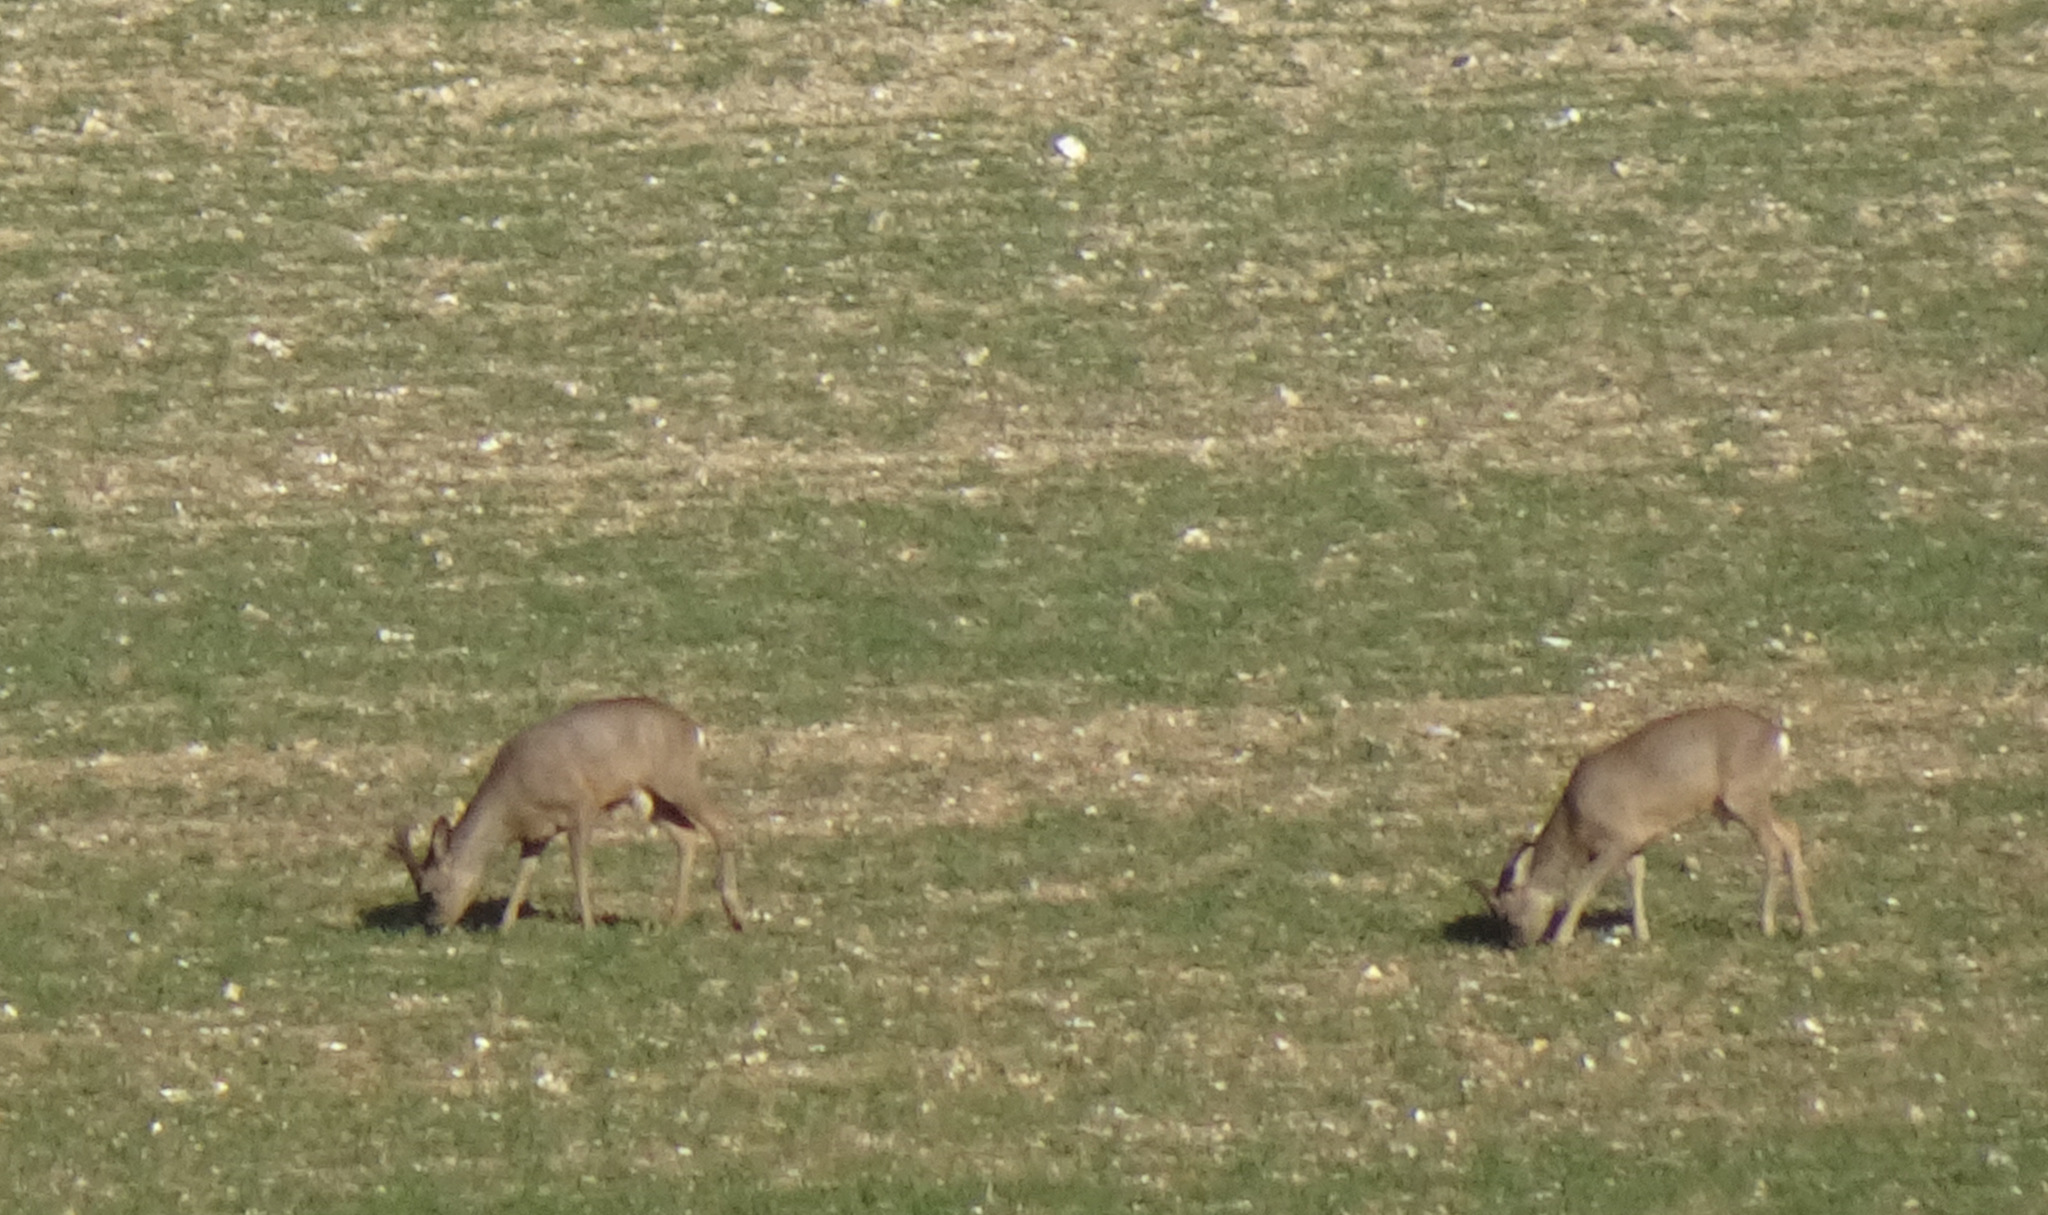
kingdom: Animalia
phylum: Chordata
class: Mammalia
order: Artiodactyla
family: Cervidae
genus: Capreolus
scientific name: Capreolus capreolus
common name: Western roe deer
